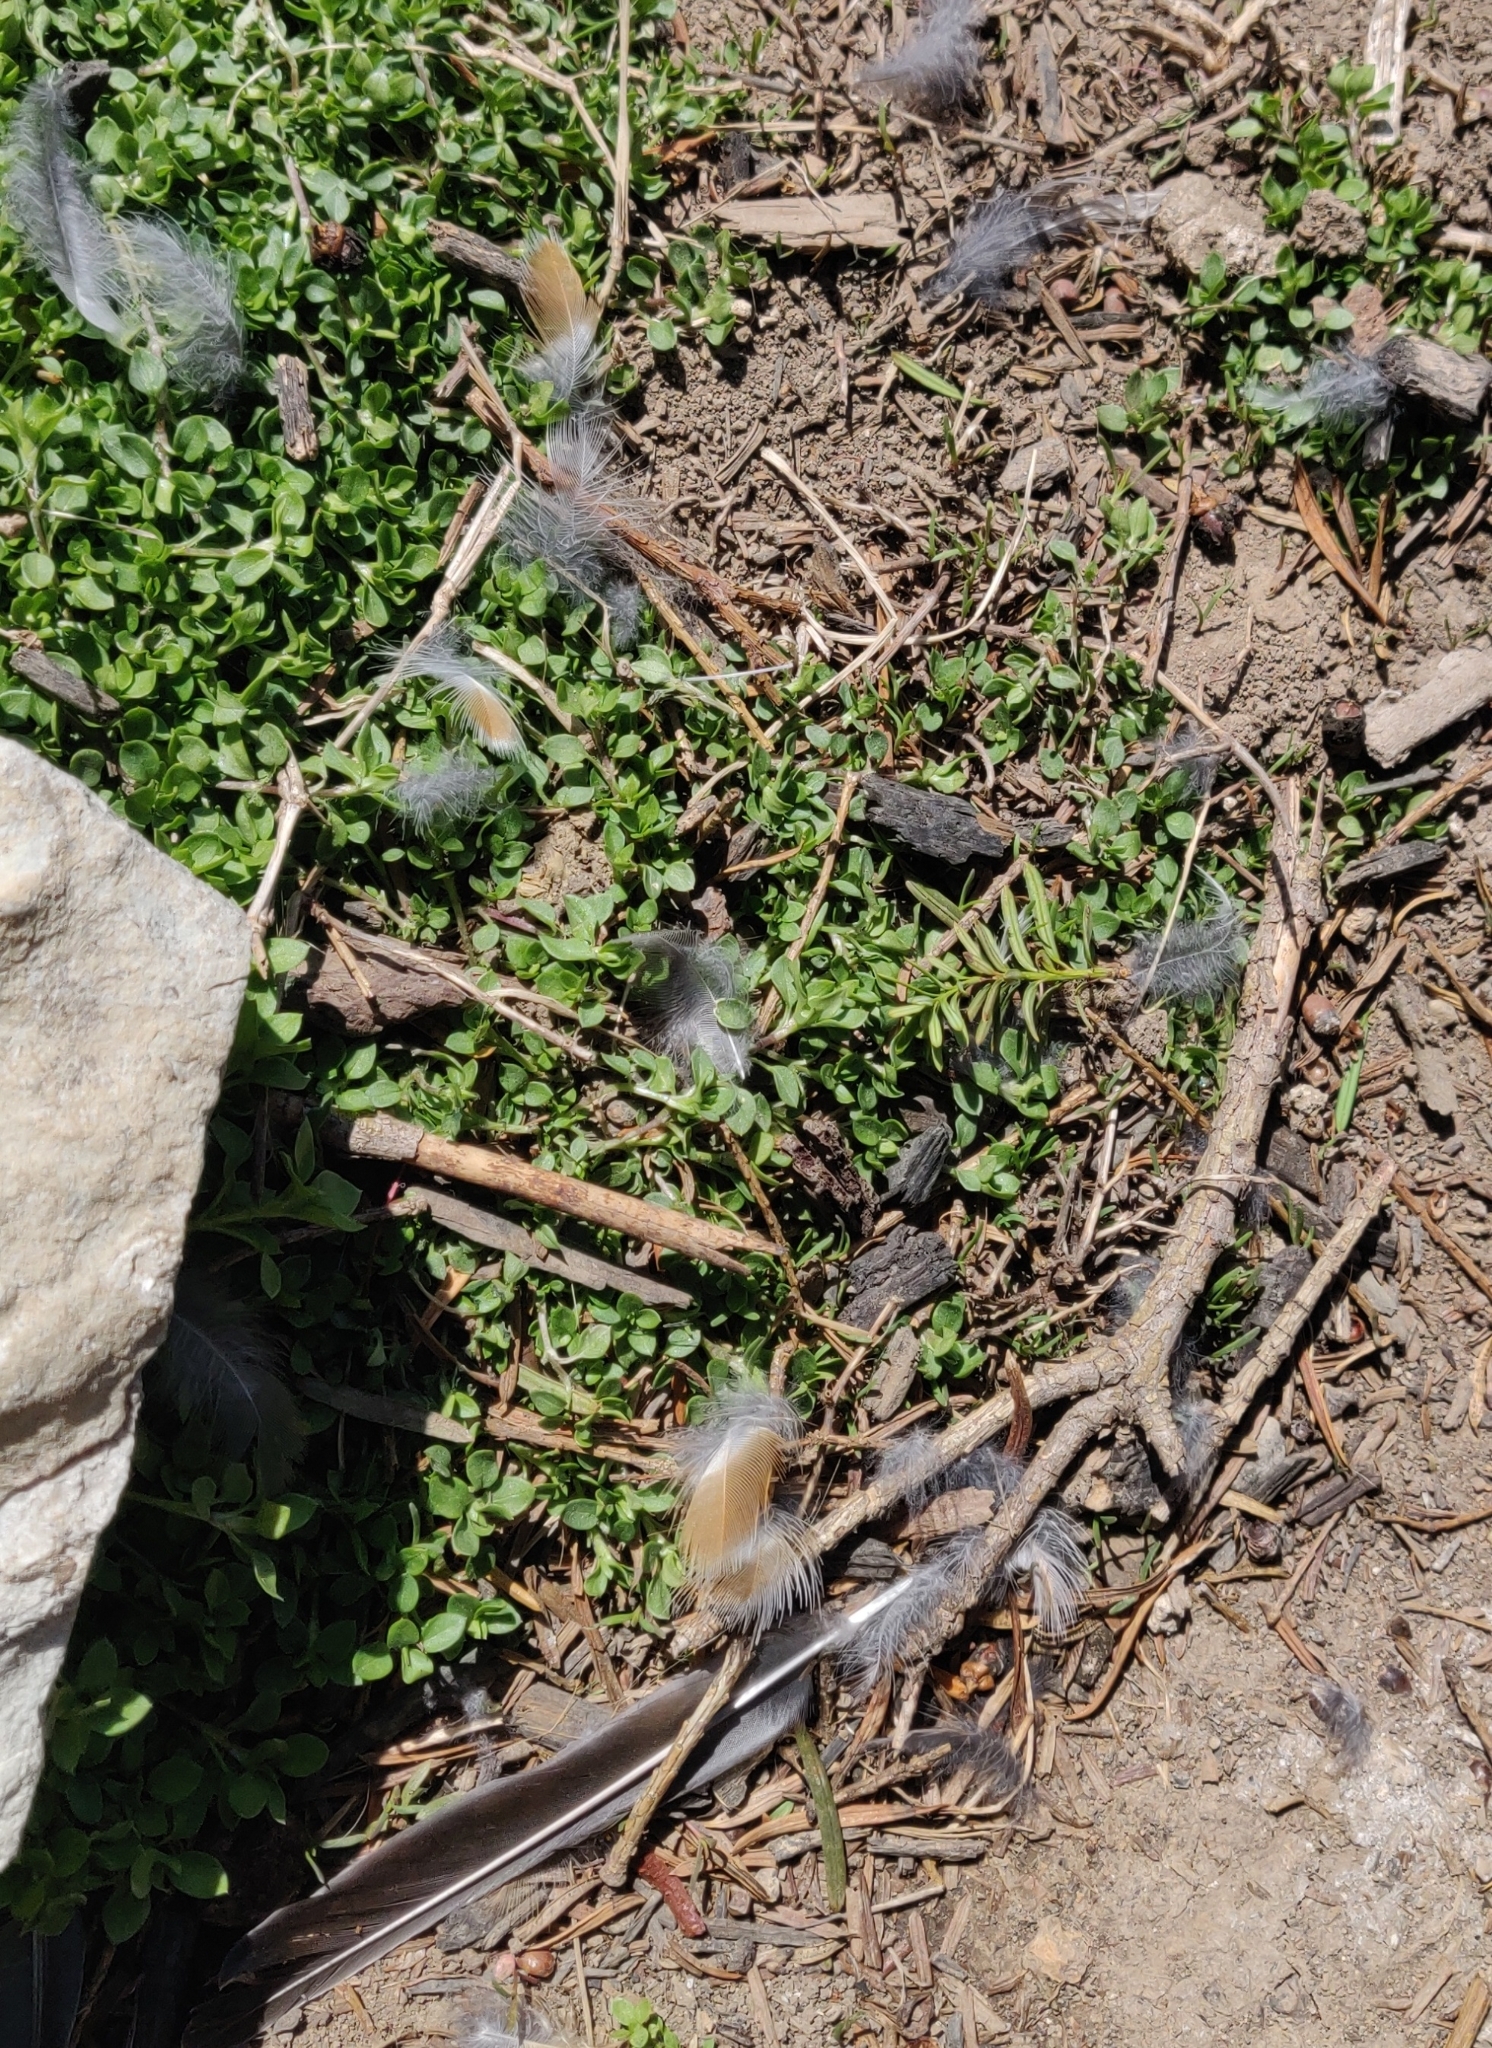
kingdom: Animalia
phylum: Chordata
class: Aves
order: Passeriformes
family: Turdidae
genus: Turdus
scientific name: Turdus migratorius
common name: American robin
